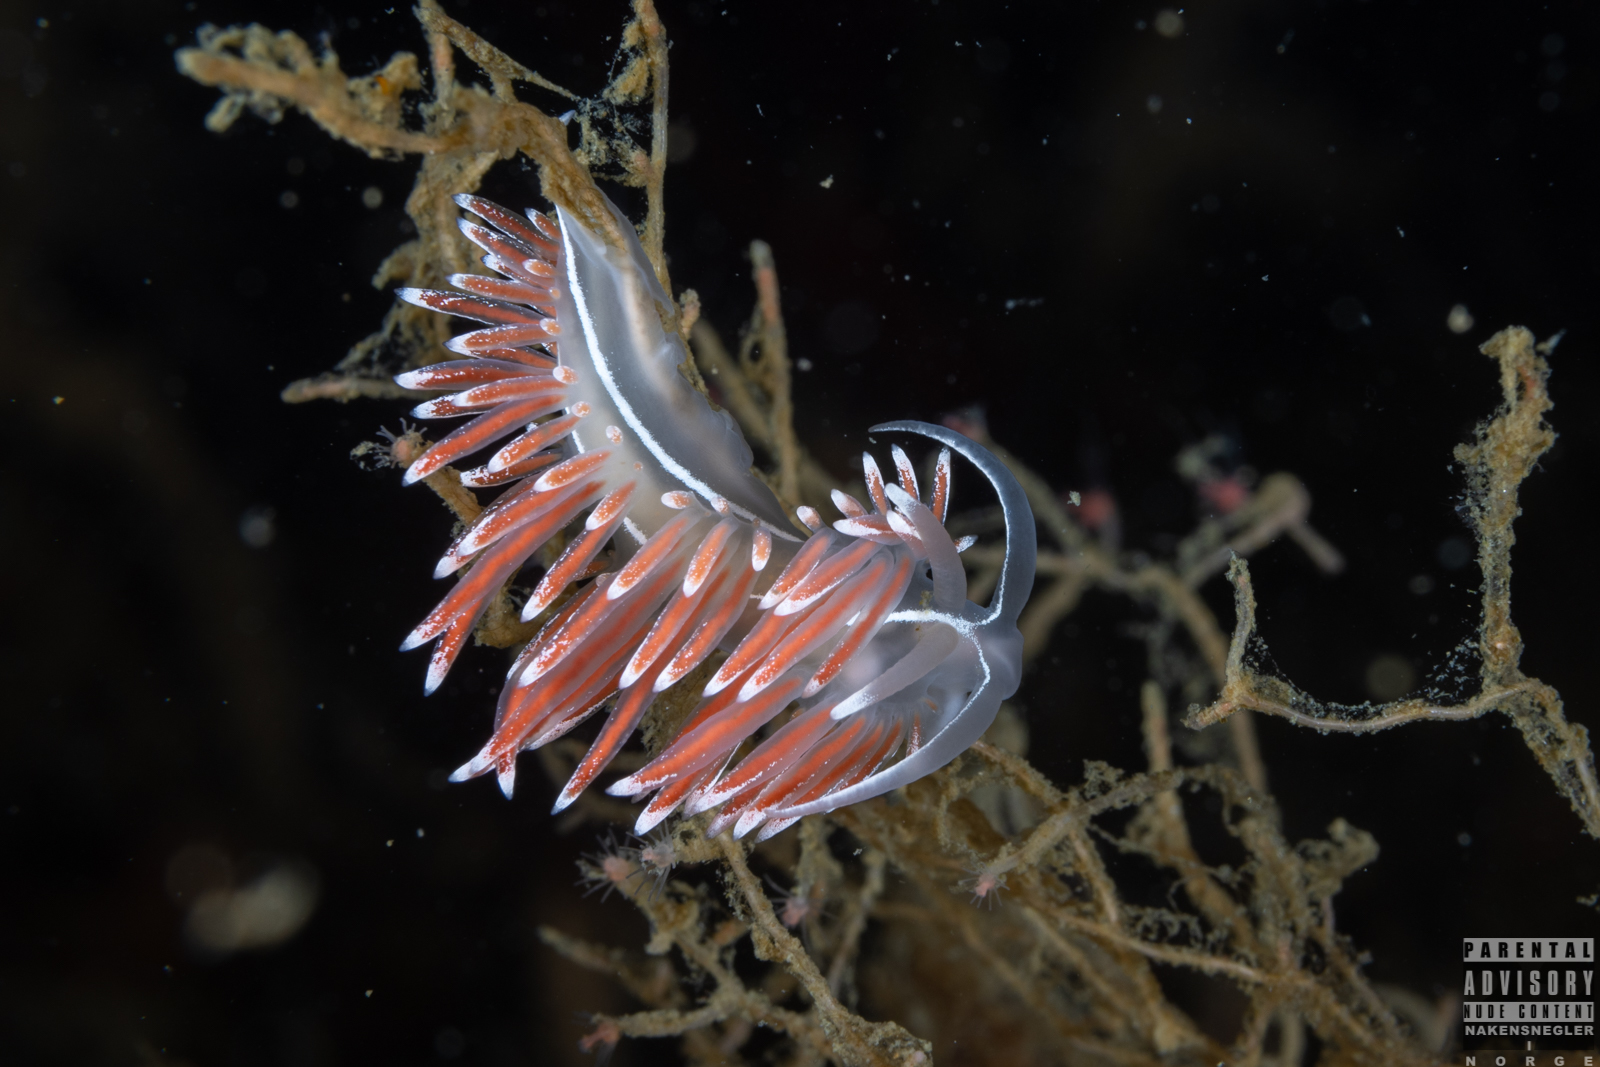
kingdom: Animalia
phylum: Mollusca
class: Gastropoda
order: Nudibranchia
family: Coryphellidae
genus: Coryphella
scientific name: Coryphella lineata
